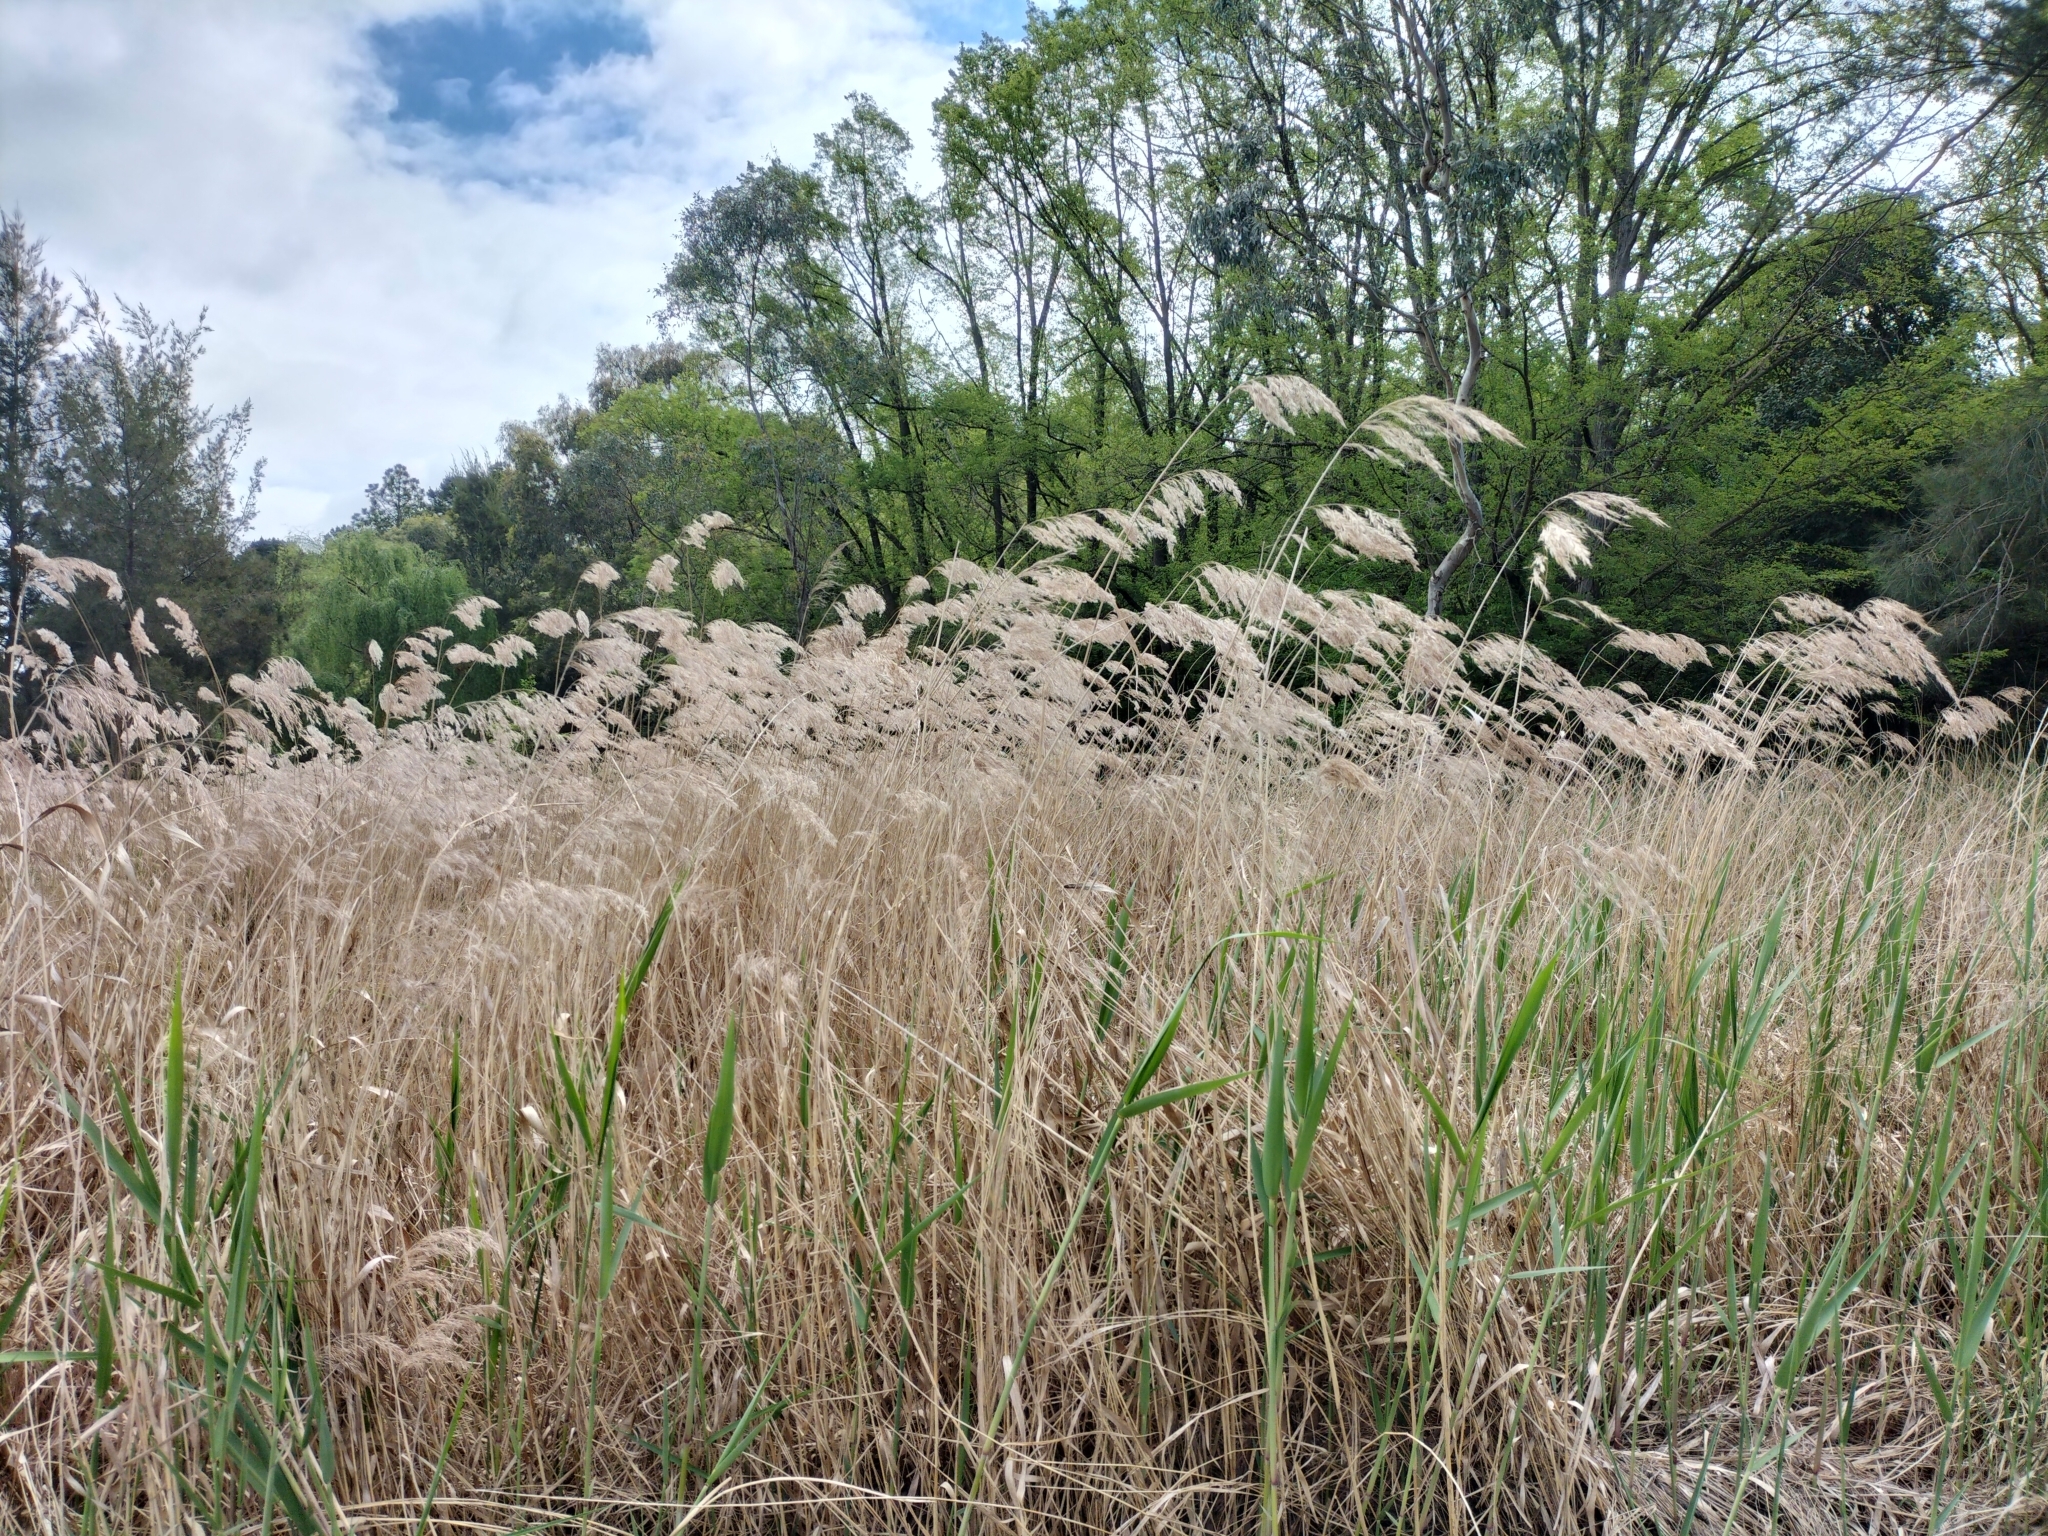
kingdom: Plantae
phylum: Tracheophyta
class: Liliopsida
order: Poales
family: Poaceae
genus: Phragmites
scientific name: Phragmites australis
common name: Common reed
